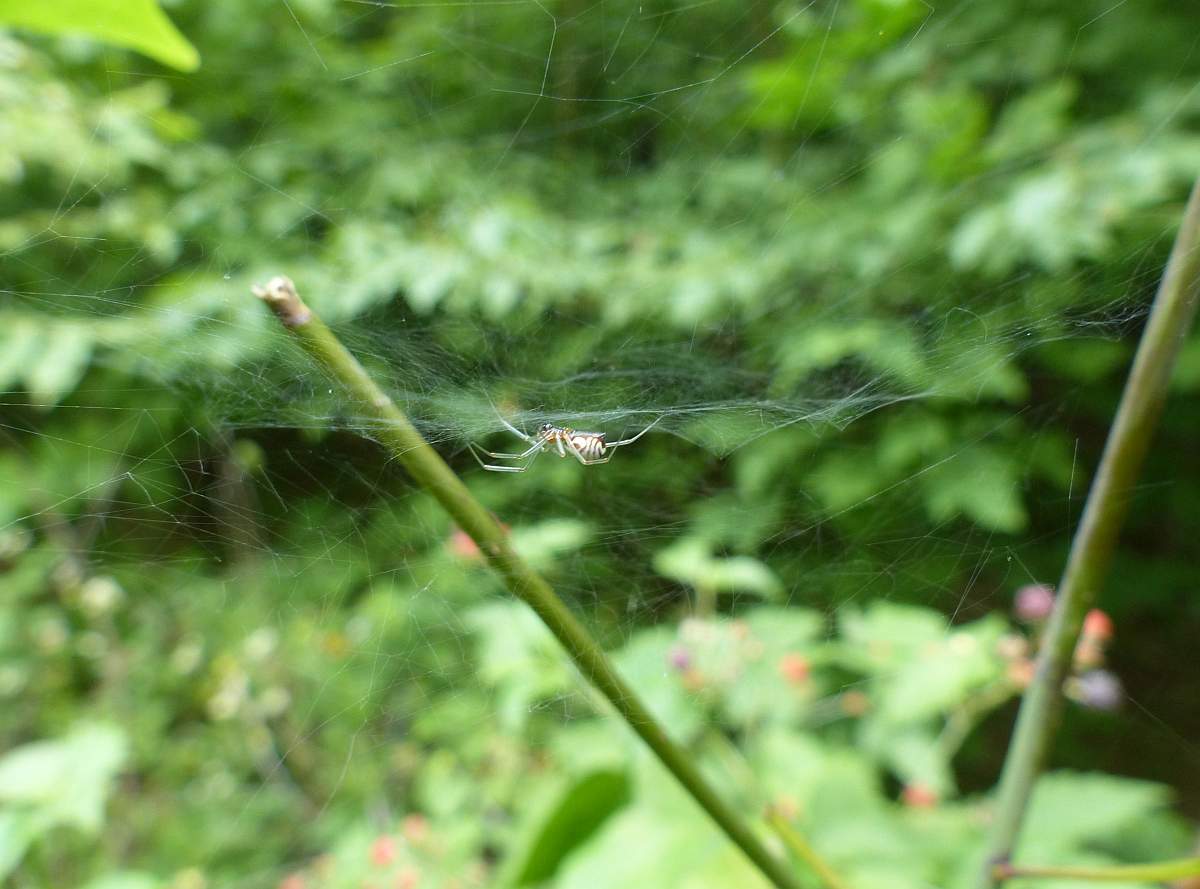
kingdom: Animalia
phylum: Arthropoda
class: Arachnida
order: Araneae
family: Linyphiidae
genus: Frontinella
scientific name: Frontinella pyramitela
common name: Bowl-and-doily spider
